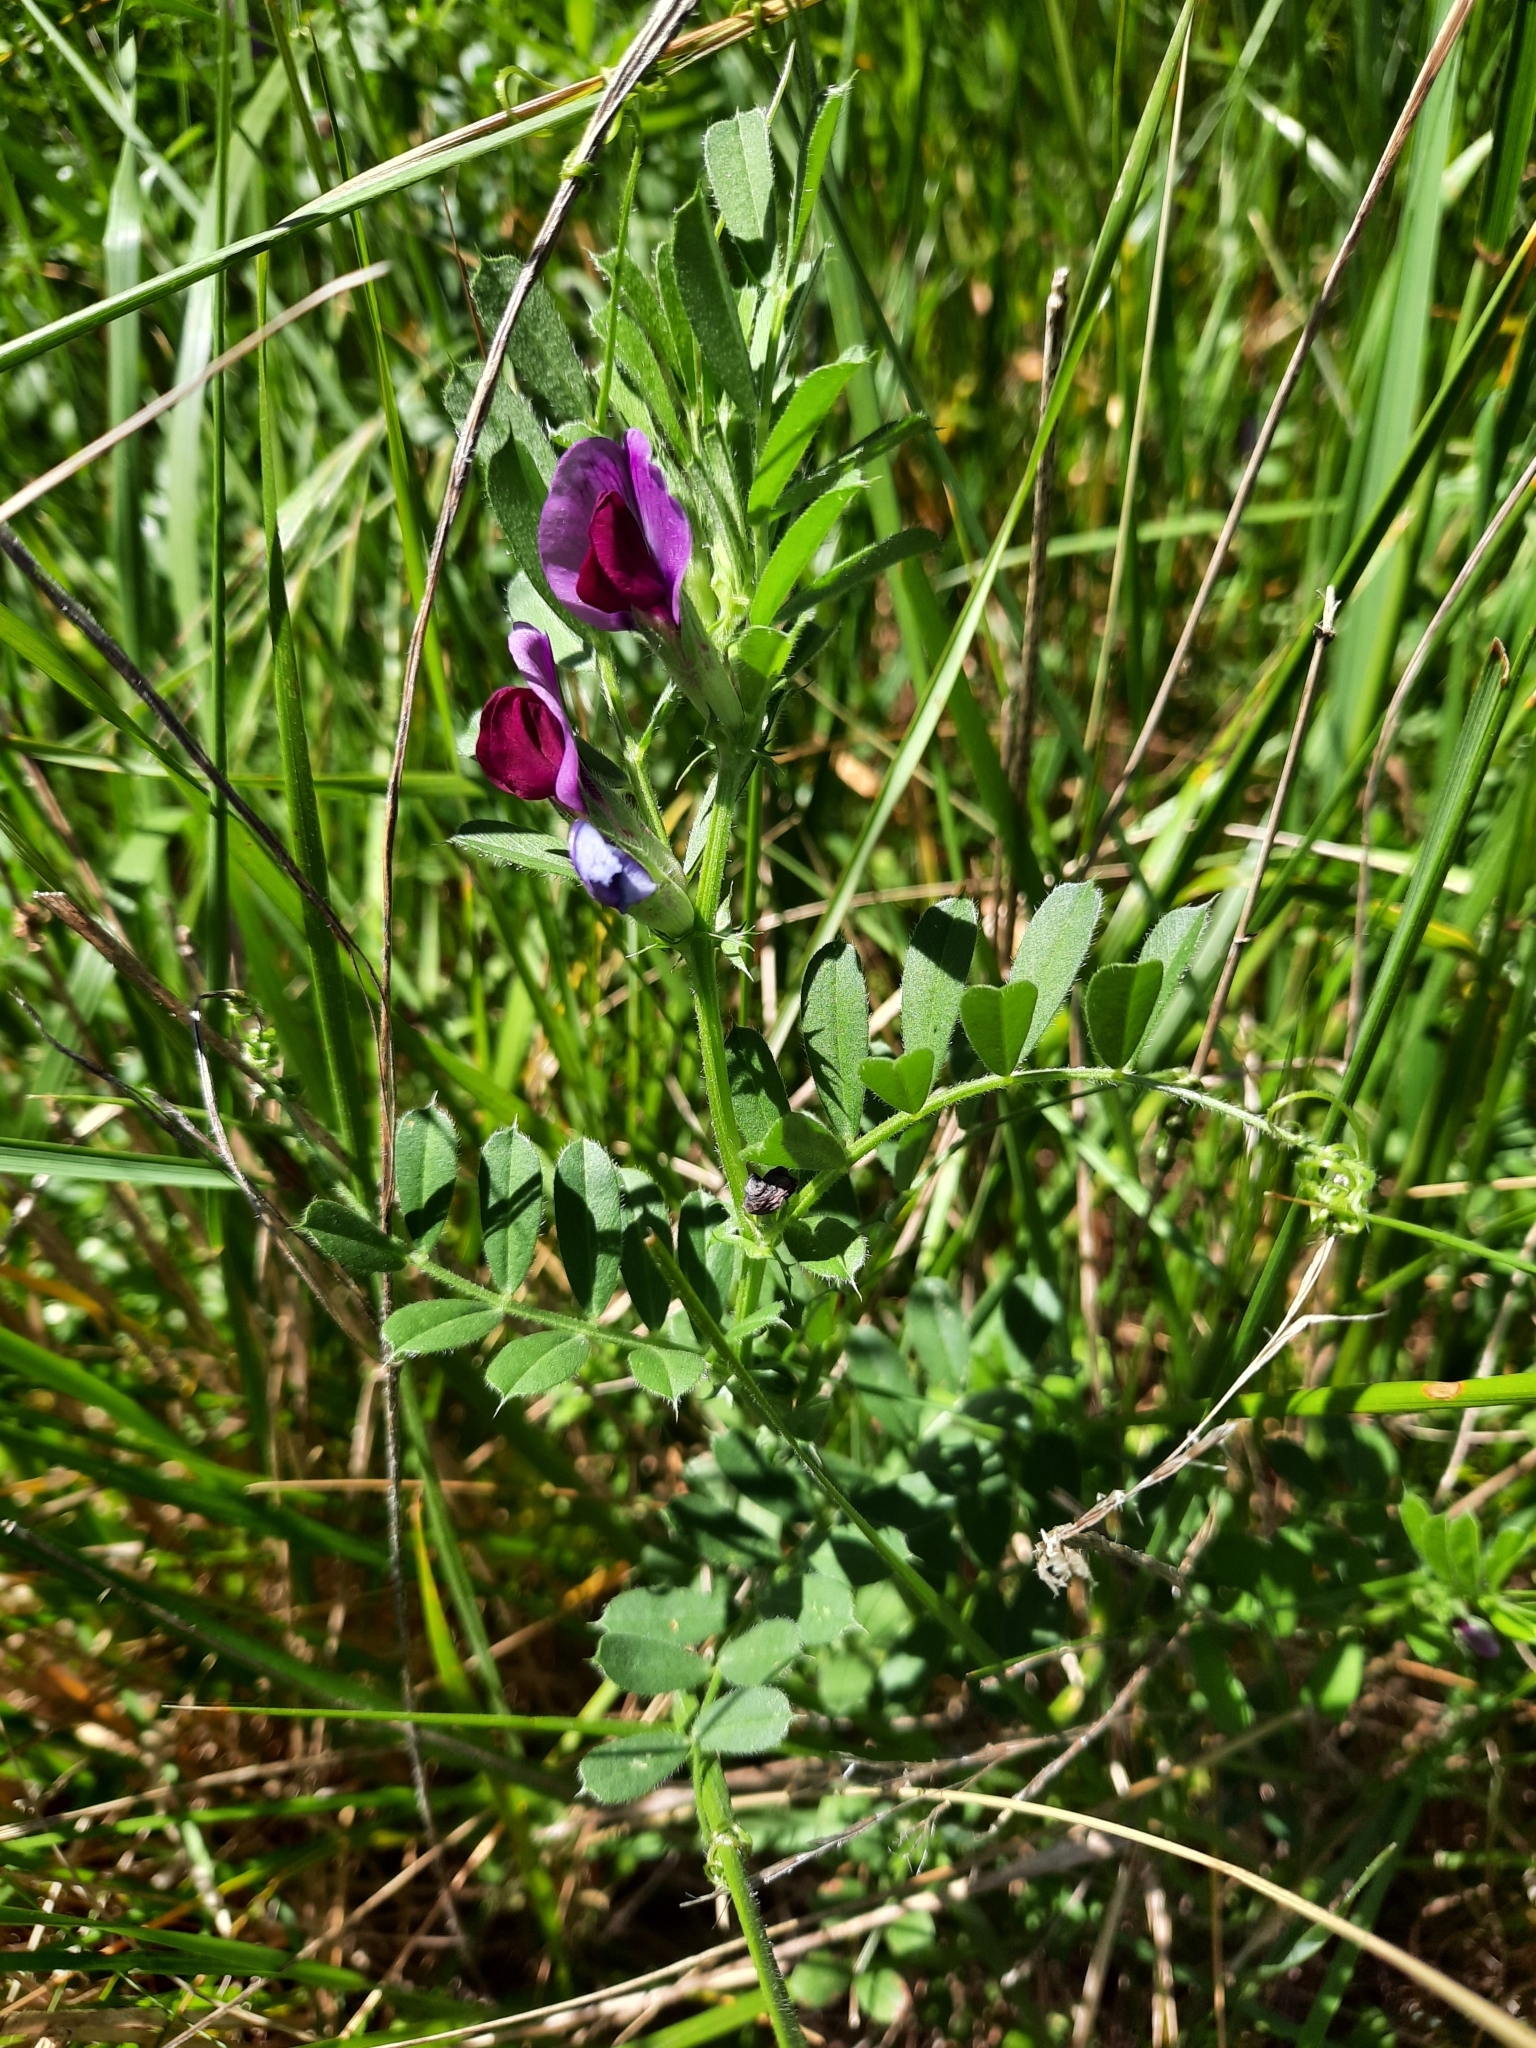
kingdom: Plantae
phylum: Tracheophyta
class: Magnoliopsida
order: Fabales
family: Fabaceae
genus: Vicia
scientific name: Vicia sativa
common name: Garden vetch
